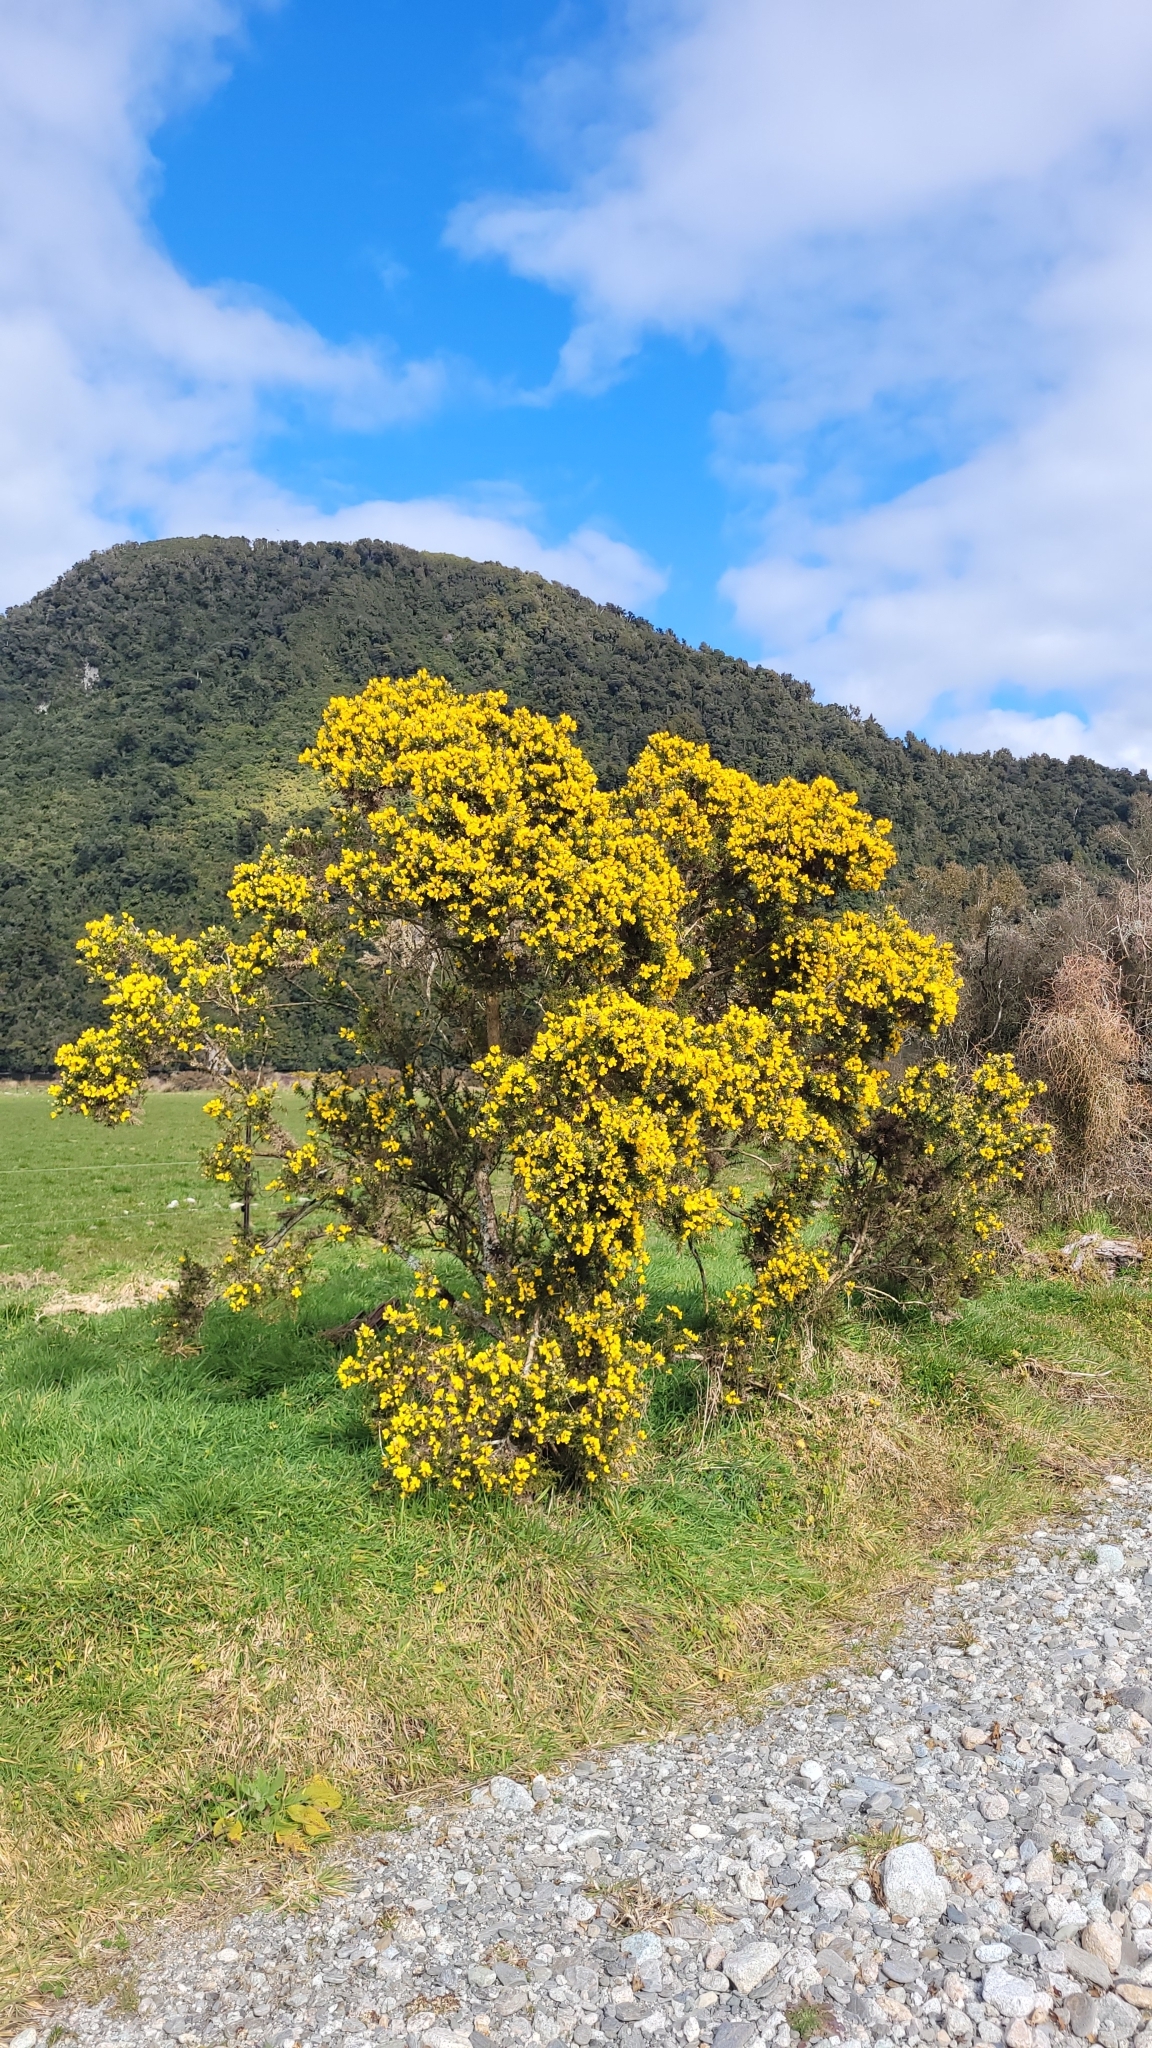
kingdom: Plantae
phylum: Tracheophyta
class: Magnoliopsida
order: Fabales
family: Fabaceae
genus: Ulex
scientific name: Ulex europaeus
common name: Common gorse
